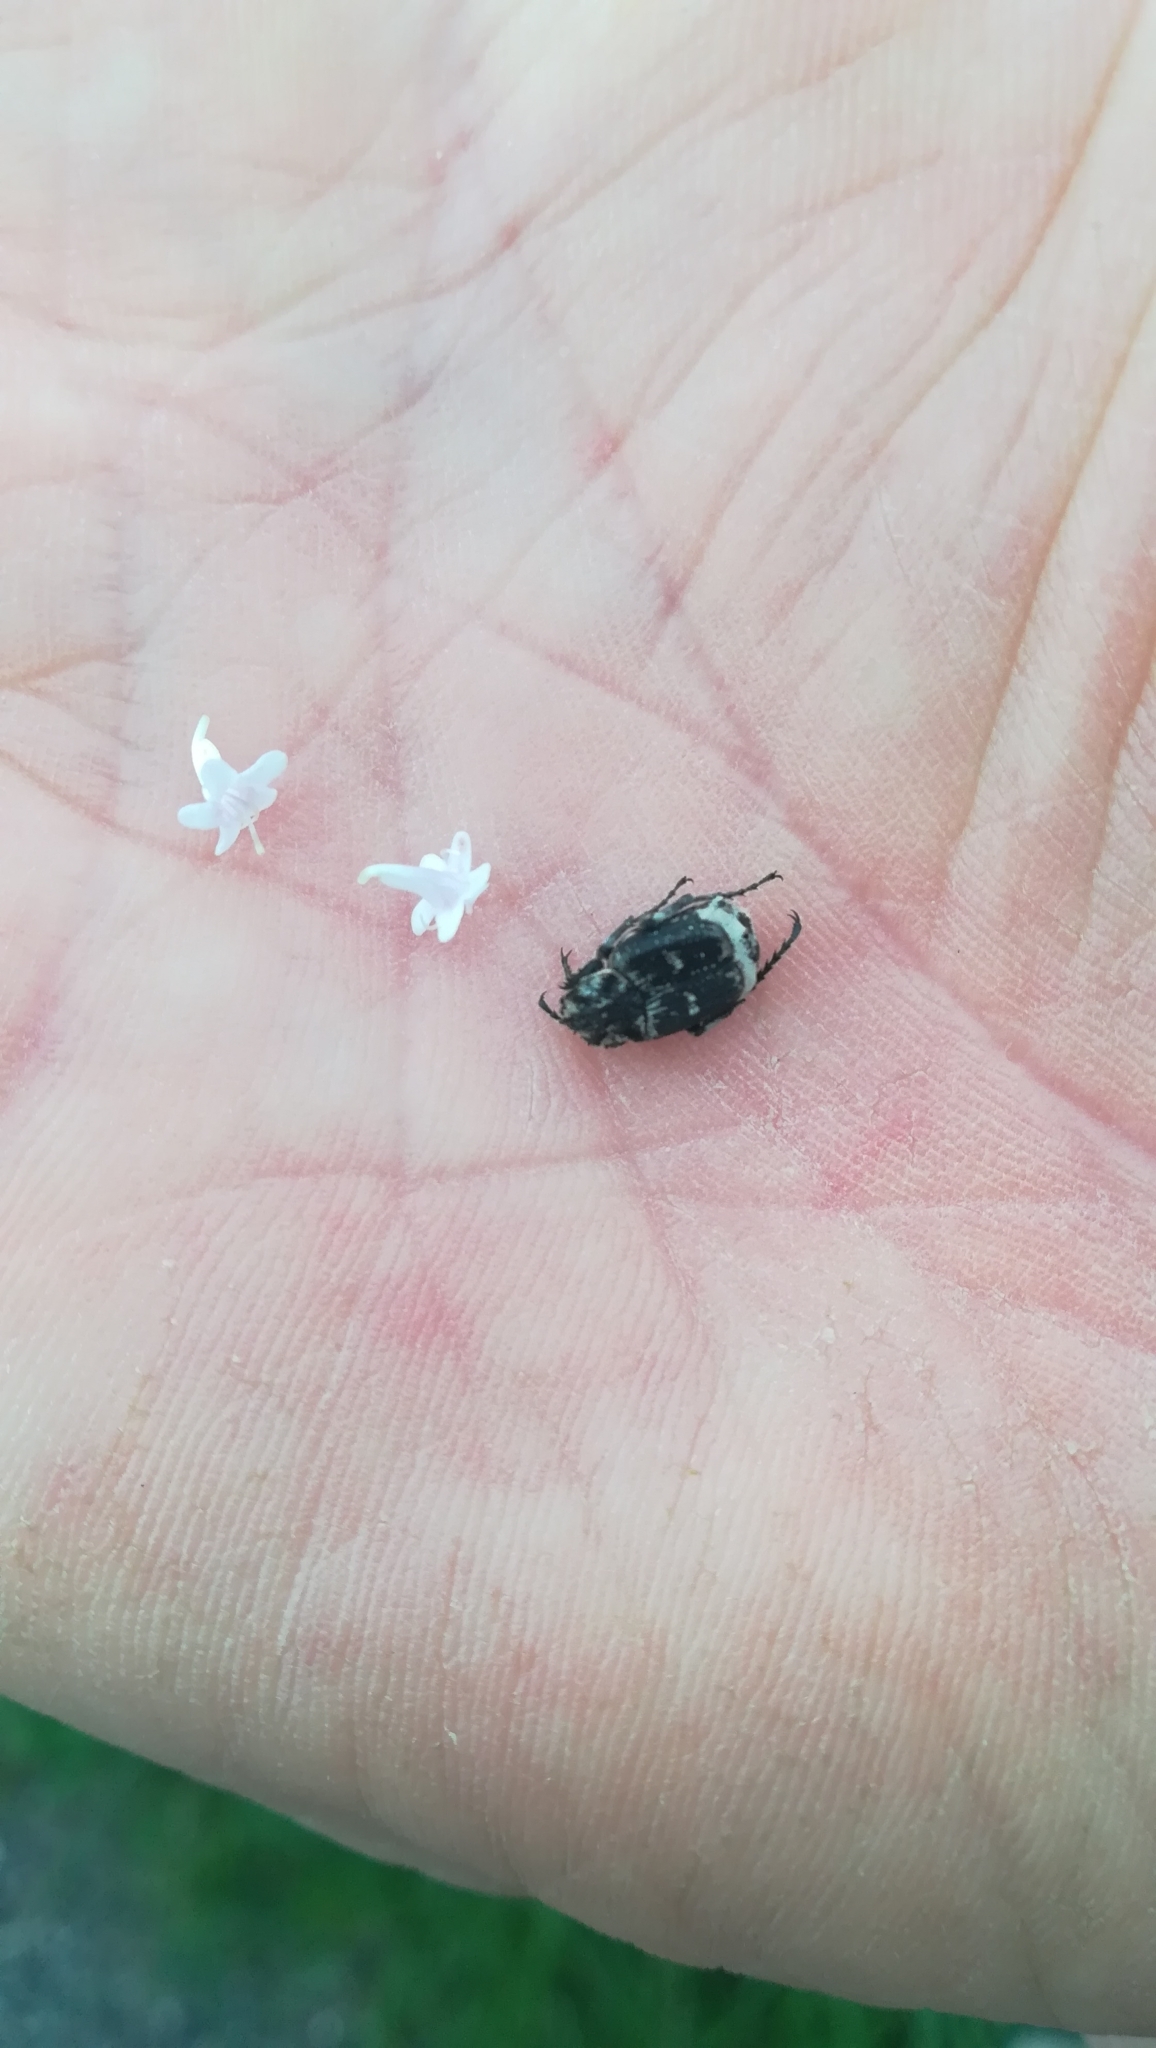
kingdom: Animalia
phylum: Arthropoda
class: Insecta
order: Coleoptera
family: Scarabaeidae
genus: Valgus
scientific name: Valgus hemipterus
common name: Bug flower chafer
